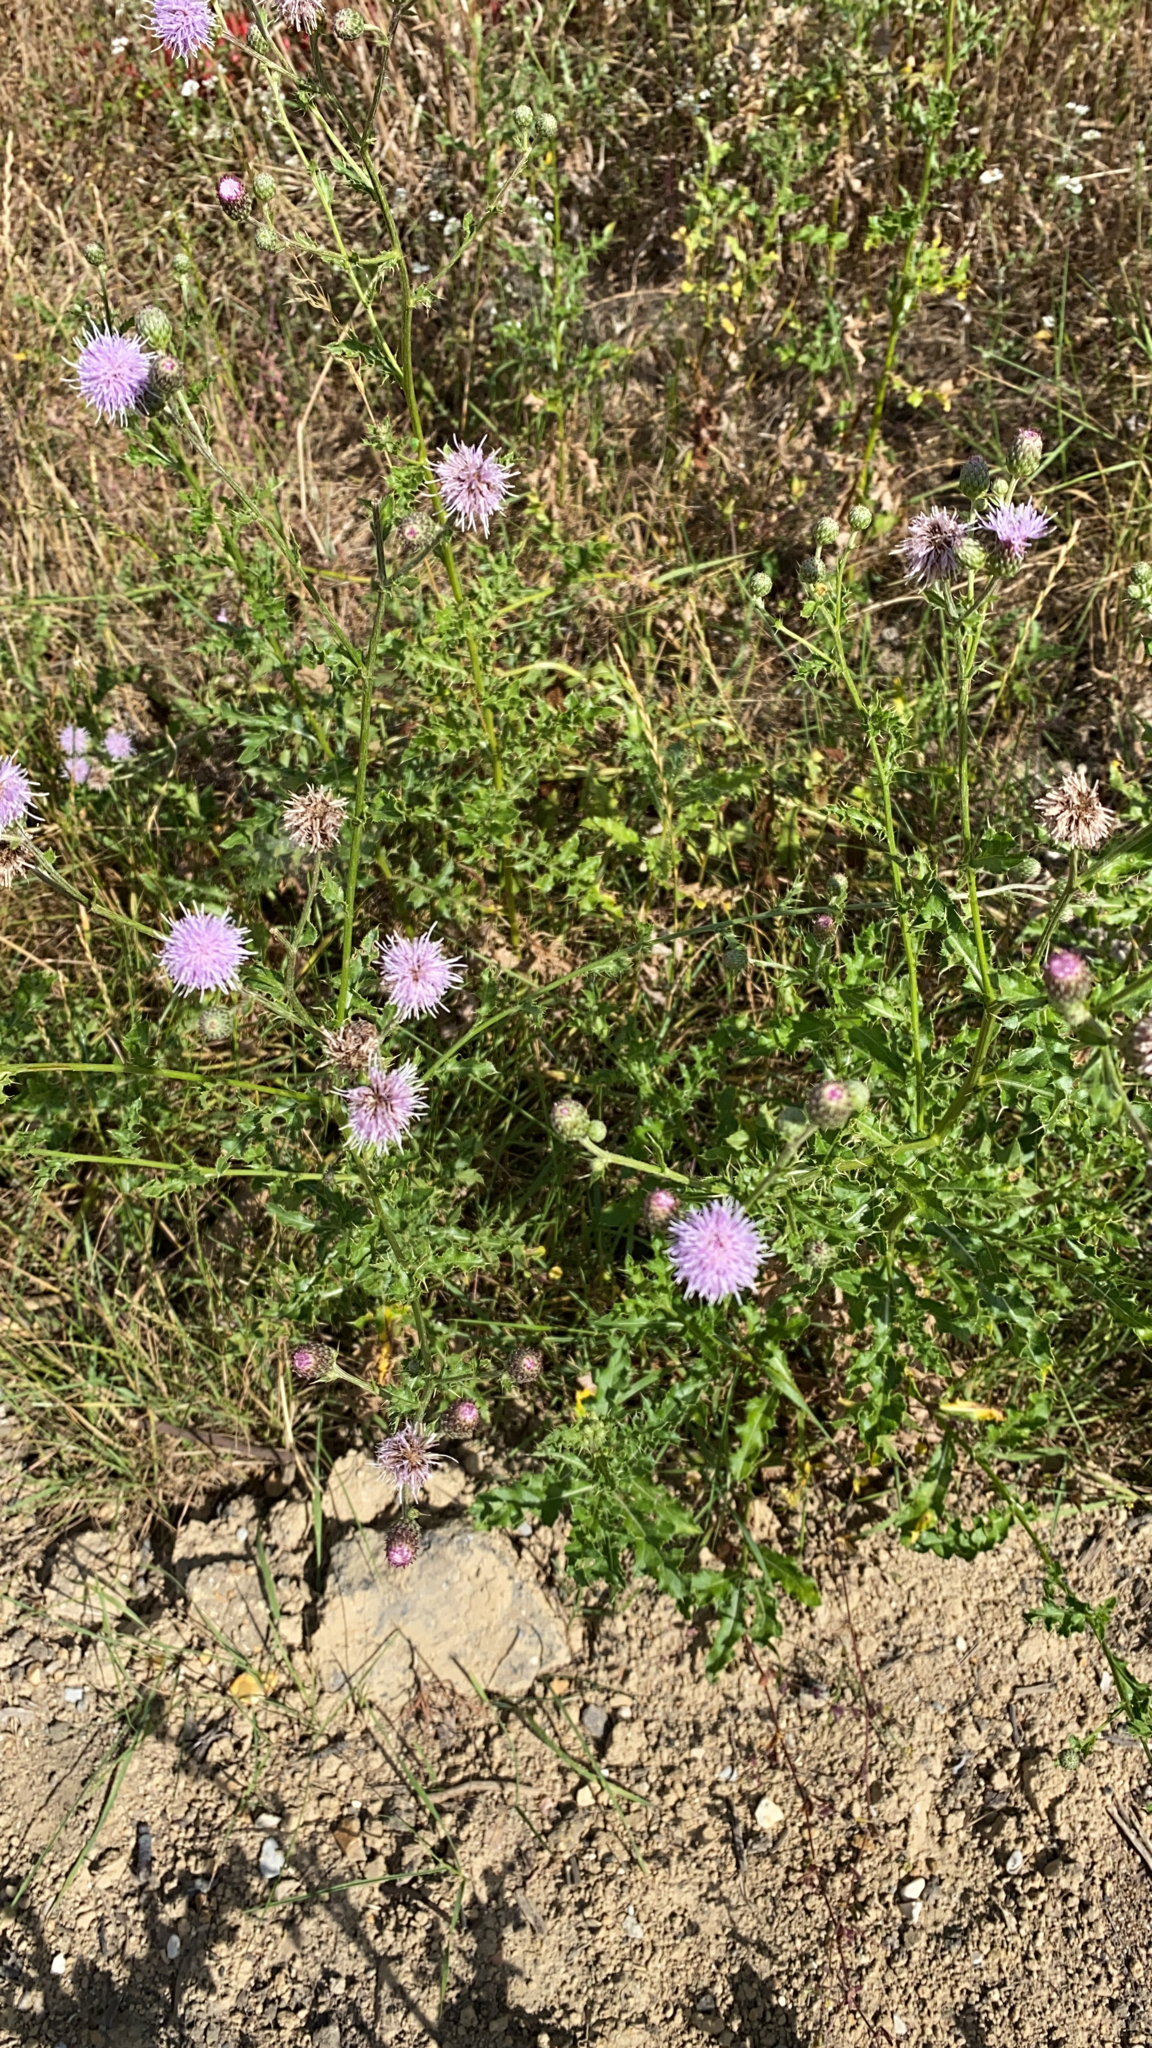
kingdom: Plantae
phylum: Tracheophyta
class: Magnoliopsida
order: Asterales
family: Asteraceae
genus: Cirsium
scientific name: Cirsium arvense
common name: Creeping thistle
